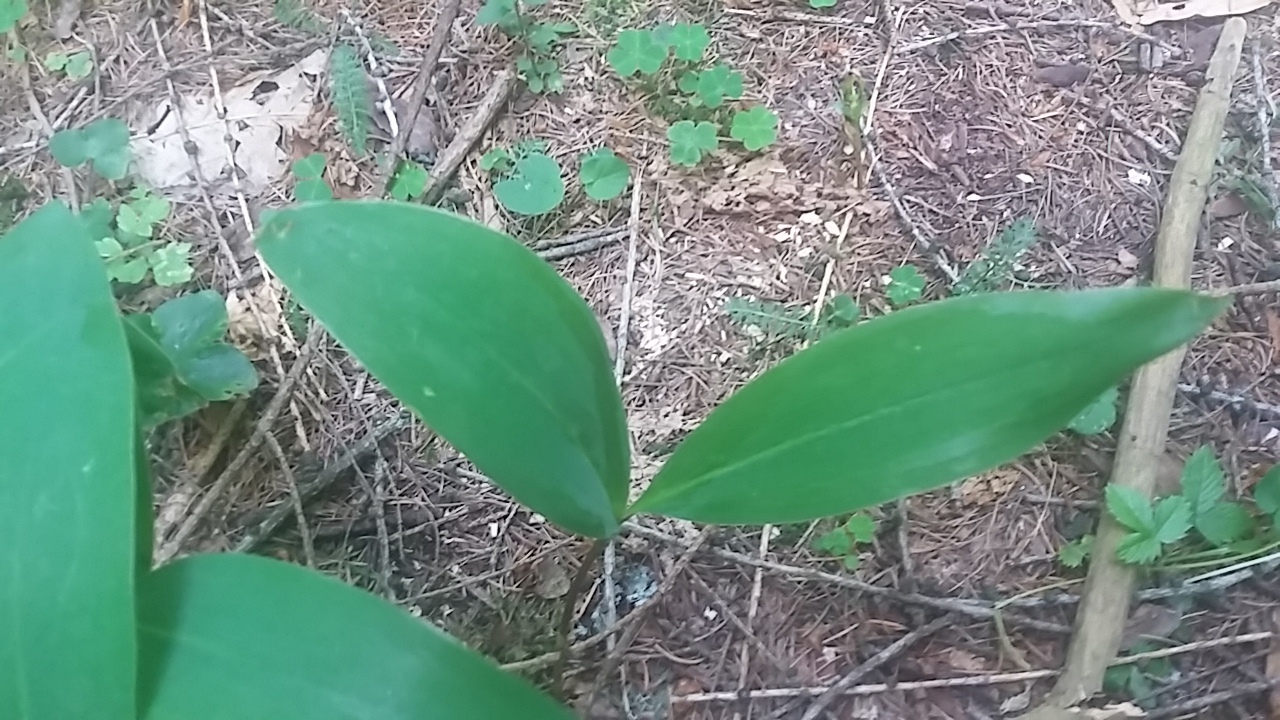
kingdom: Plantae
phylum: Tracheophyta
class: Liliopsida
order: Asparagales
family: Asparagaceae
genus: Convallaria
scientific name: Convallaria majalis
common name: Lily-of-the-valley
